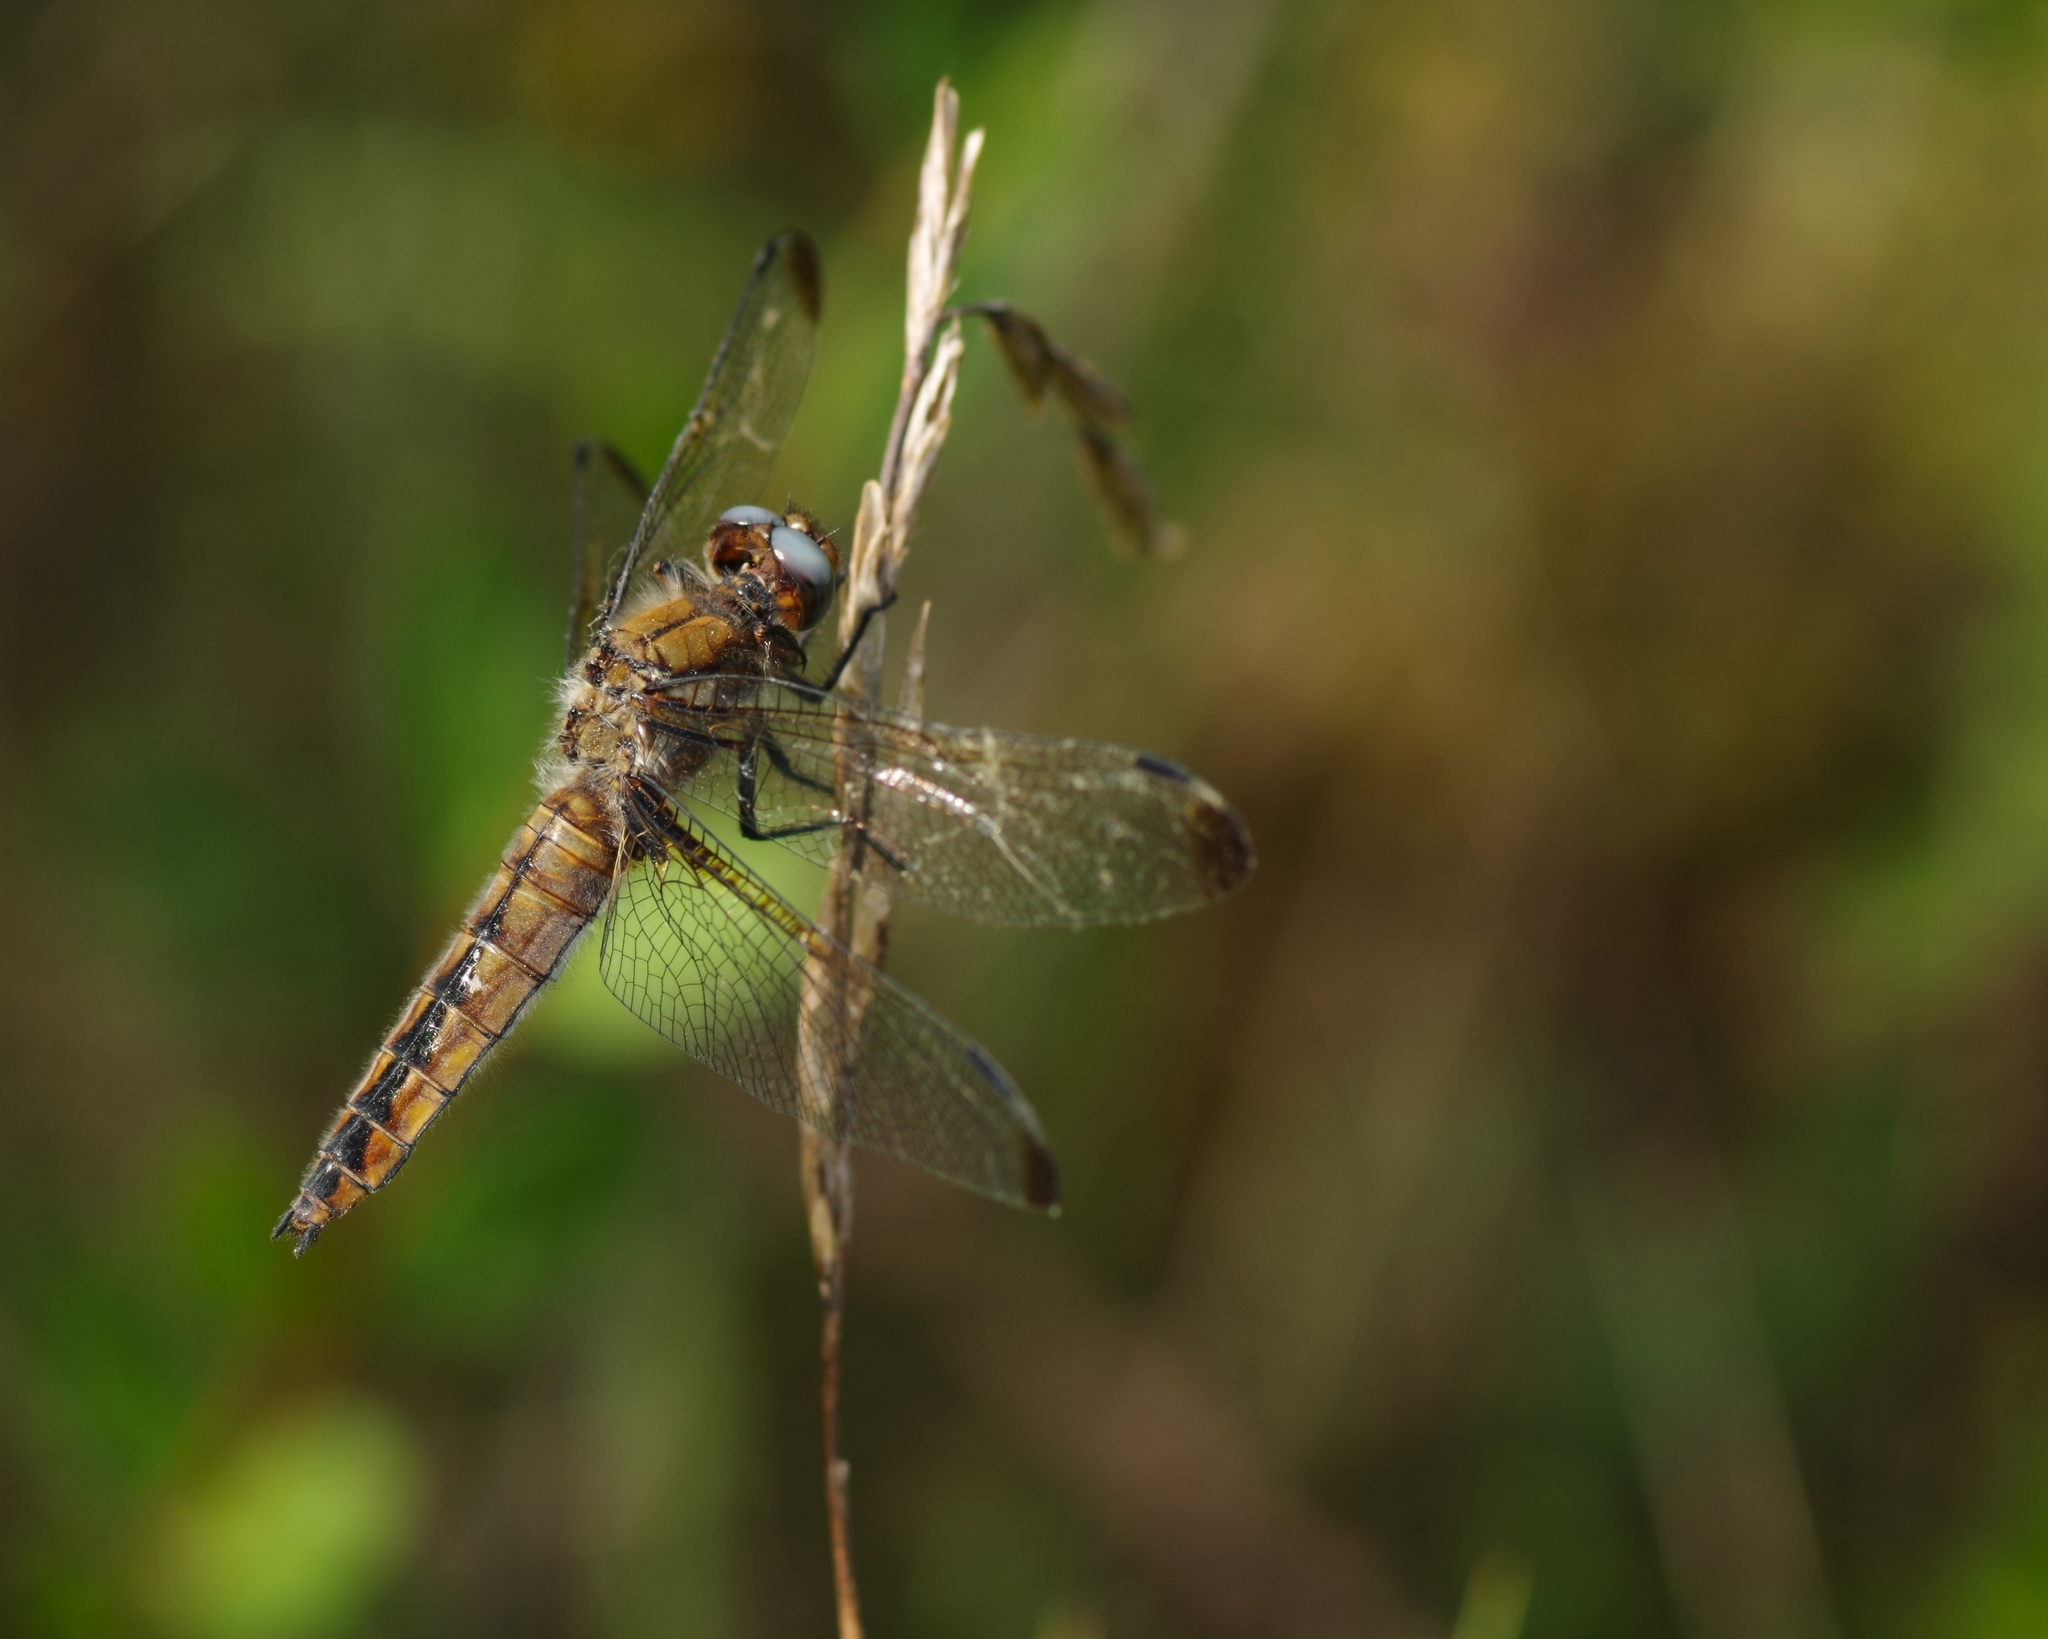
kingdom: Animalia
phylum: Arthropoda
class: Insecta
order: Odonata
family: Libellulidae
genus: Libellula
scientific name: Libellula fulva
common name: Blue chaser
